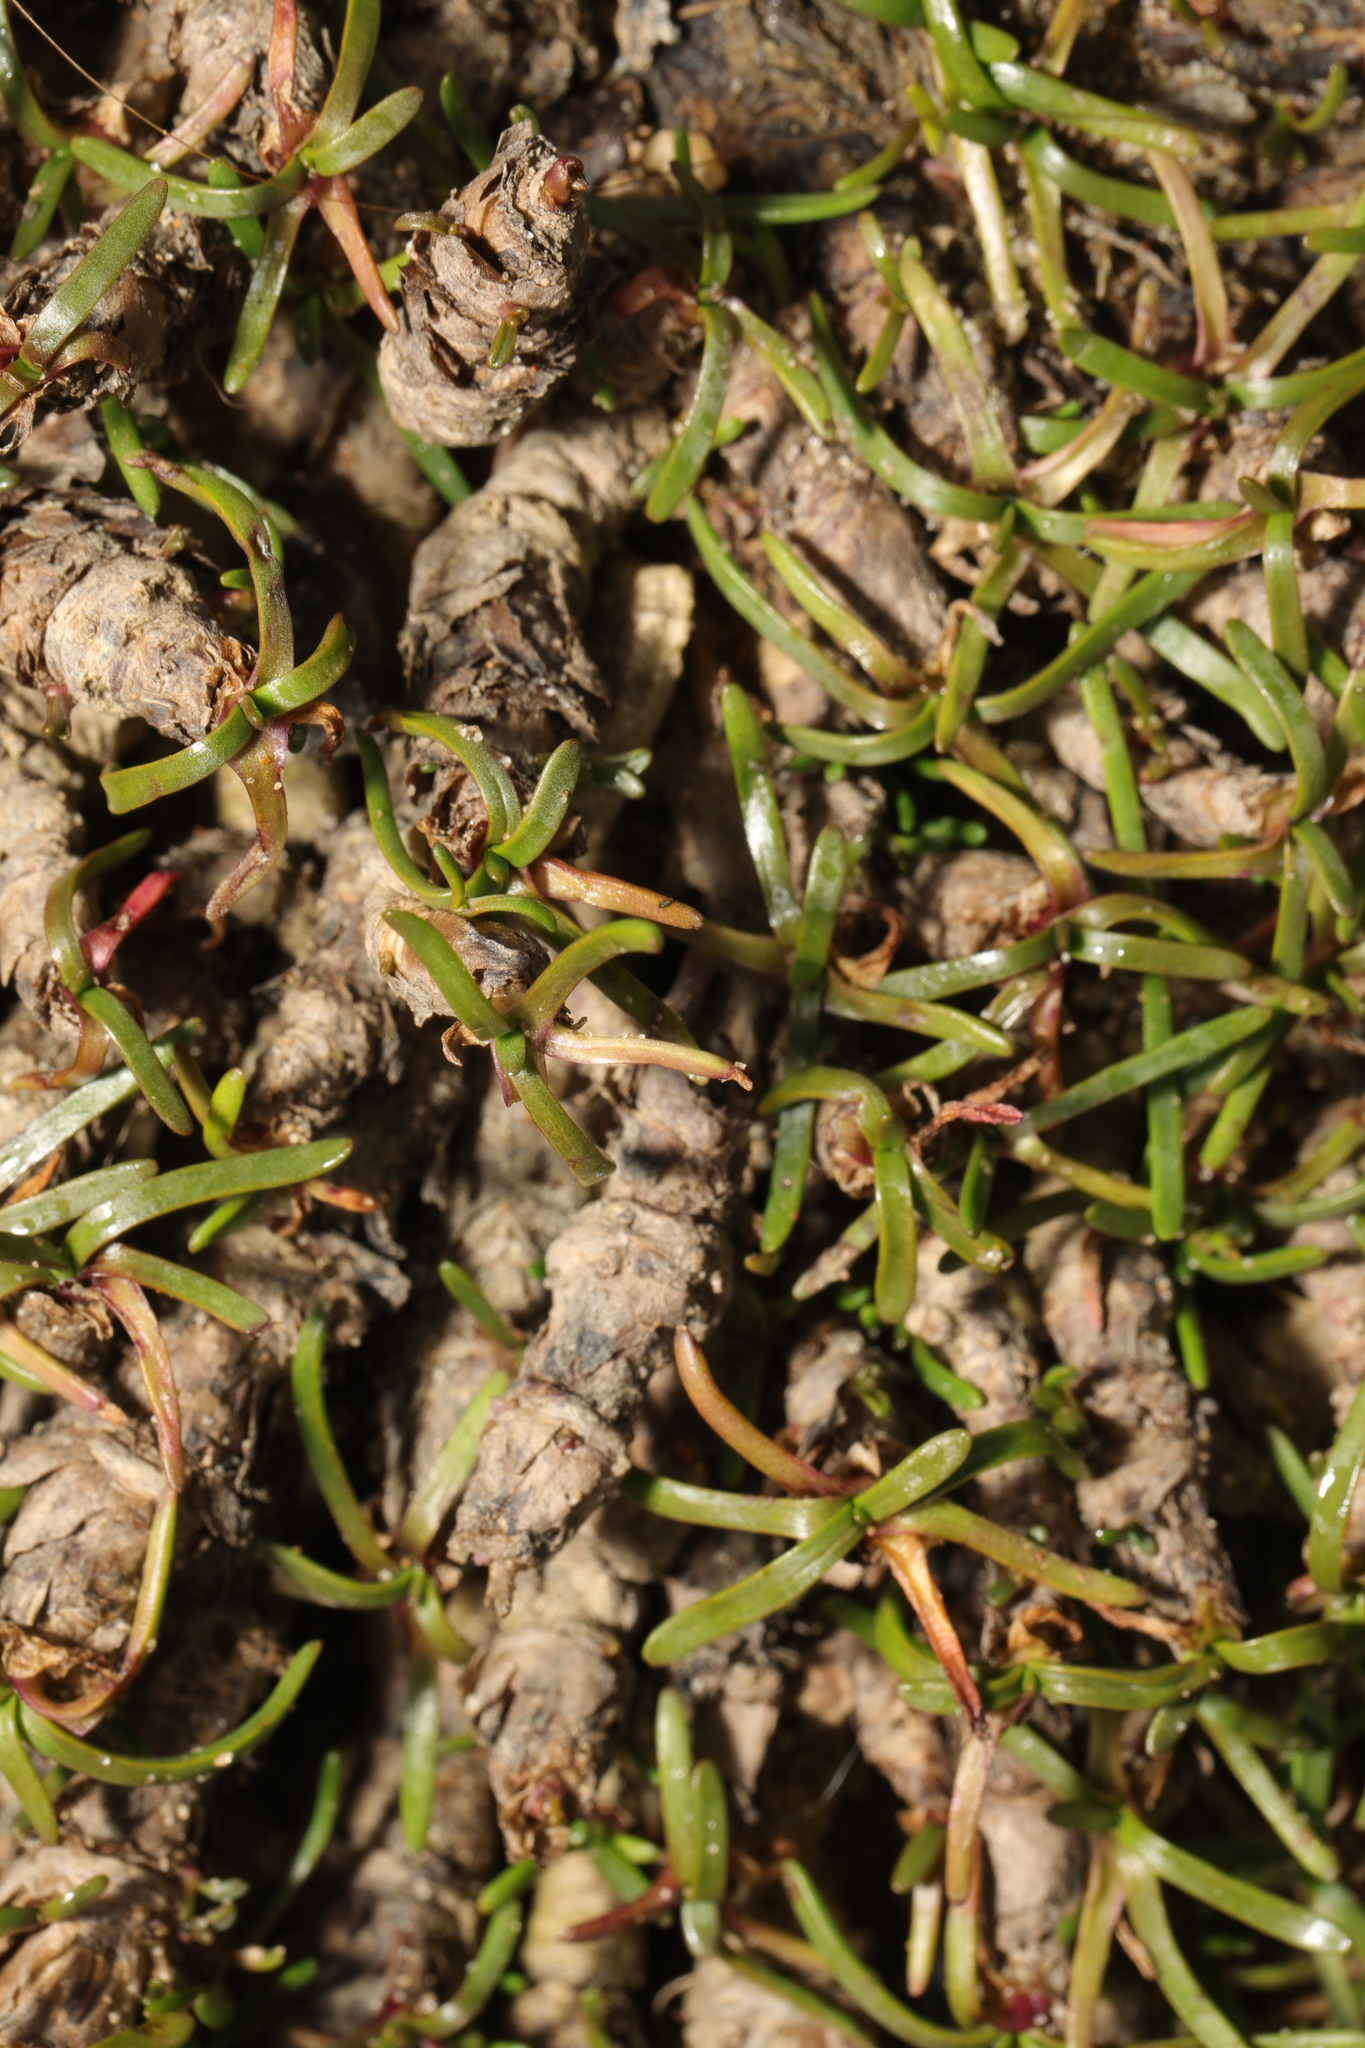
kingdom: Plantae
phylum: Tracheophyta
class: Magnoliopsida
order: Caryophyllales
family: Caryophyllaceae
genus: Sagina
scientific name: Sagina procumbens
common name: Procumbent pearlwort
